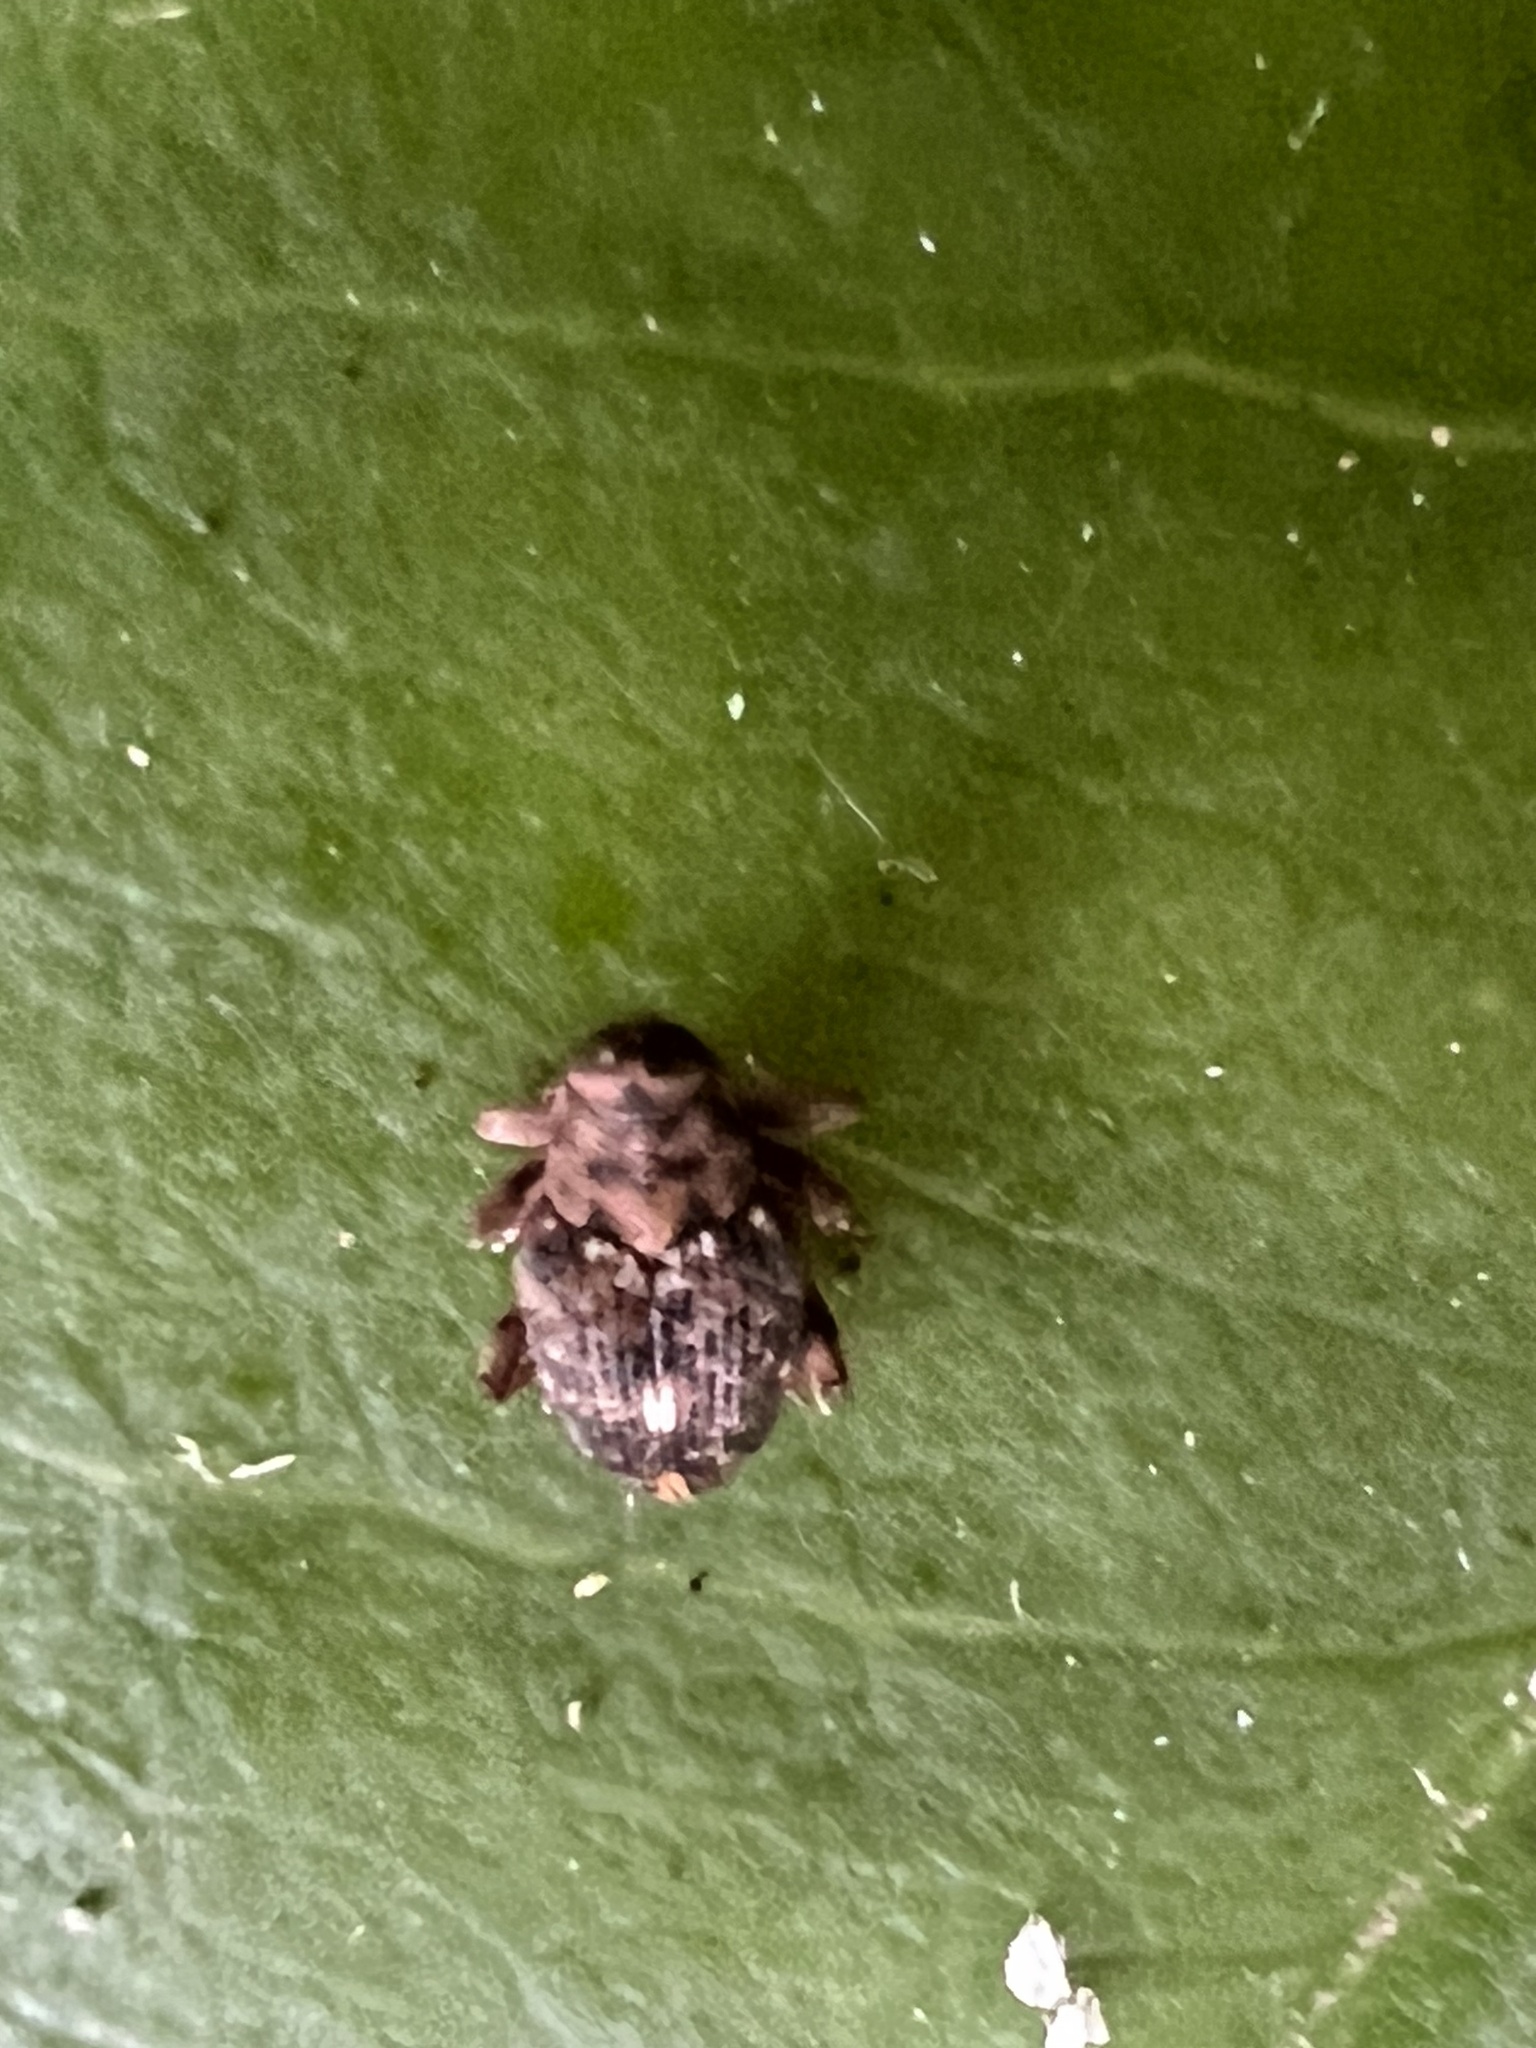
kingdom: Animalia
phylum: Arthropoda
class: Insecta
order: Coleoptera
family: Curculionidae
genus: Lechriops
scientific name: Lechriops oculatus
